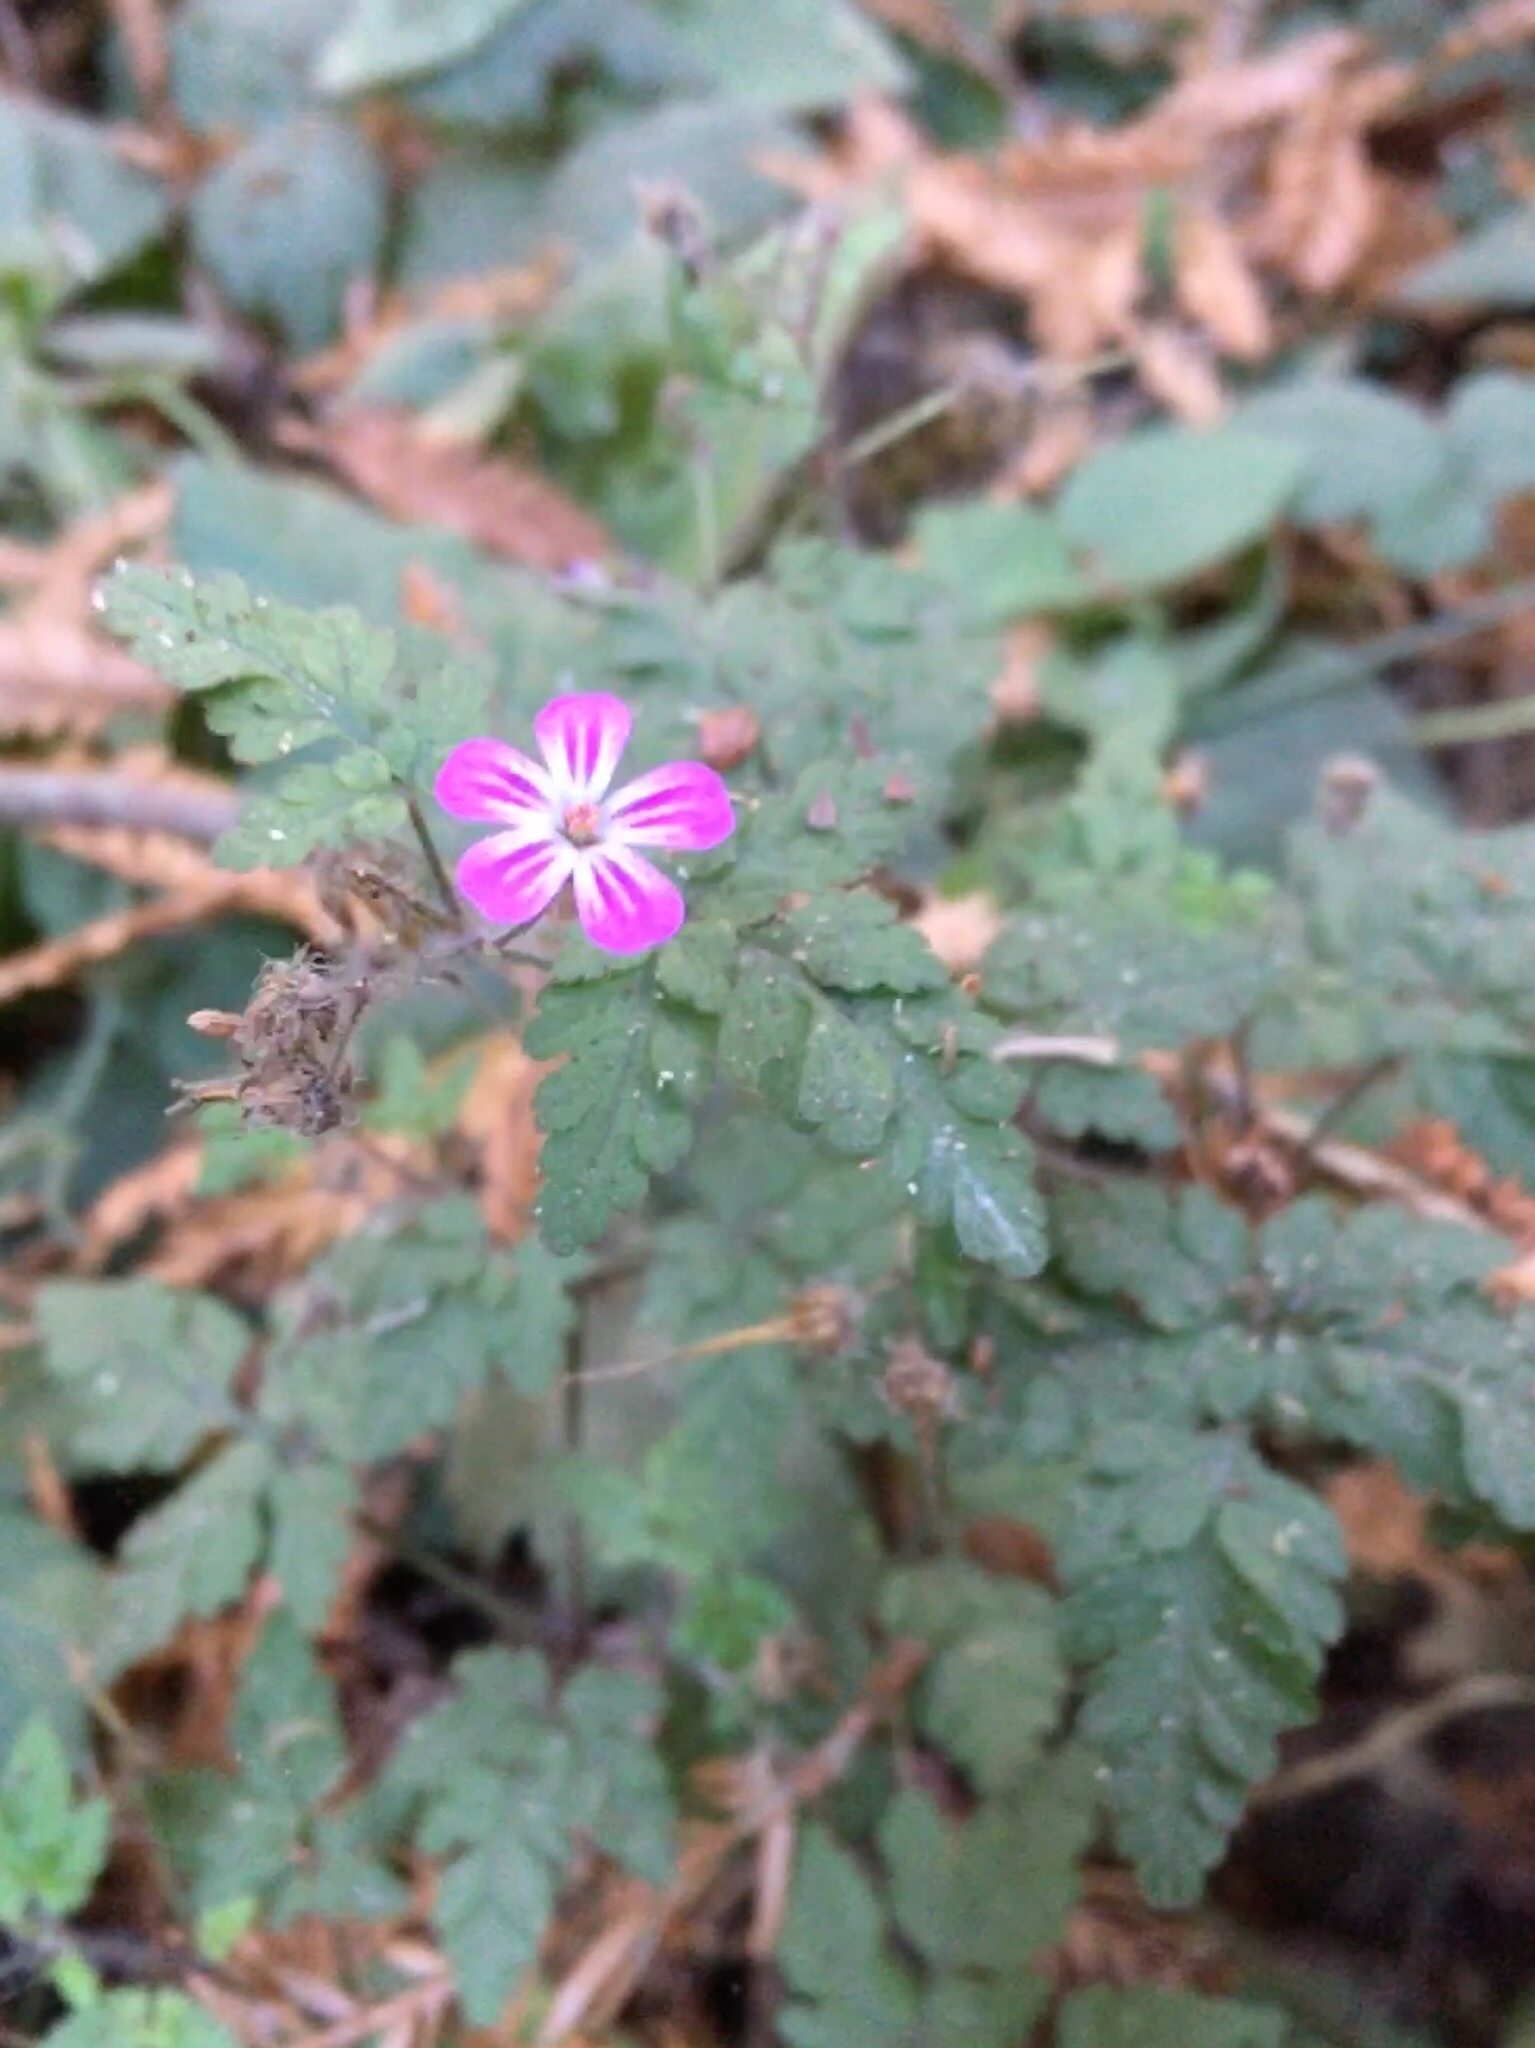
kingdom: Plantae
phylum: Tracheophyta
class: Magnoliopsida
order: Geraniales
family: Geraniaceae
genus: Geranium
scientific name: Geranium robertianum
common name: Herb-robert
